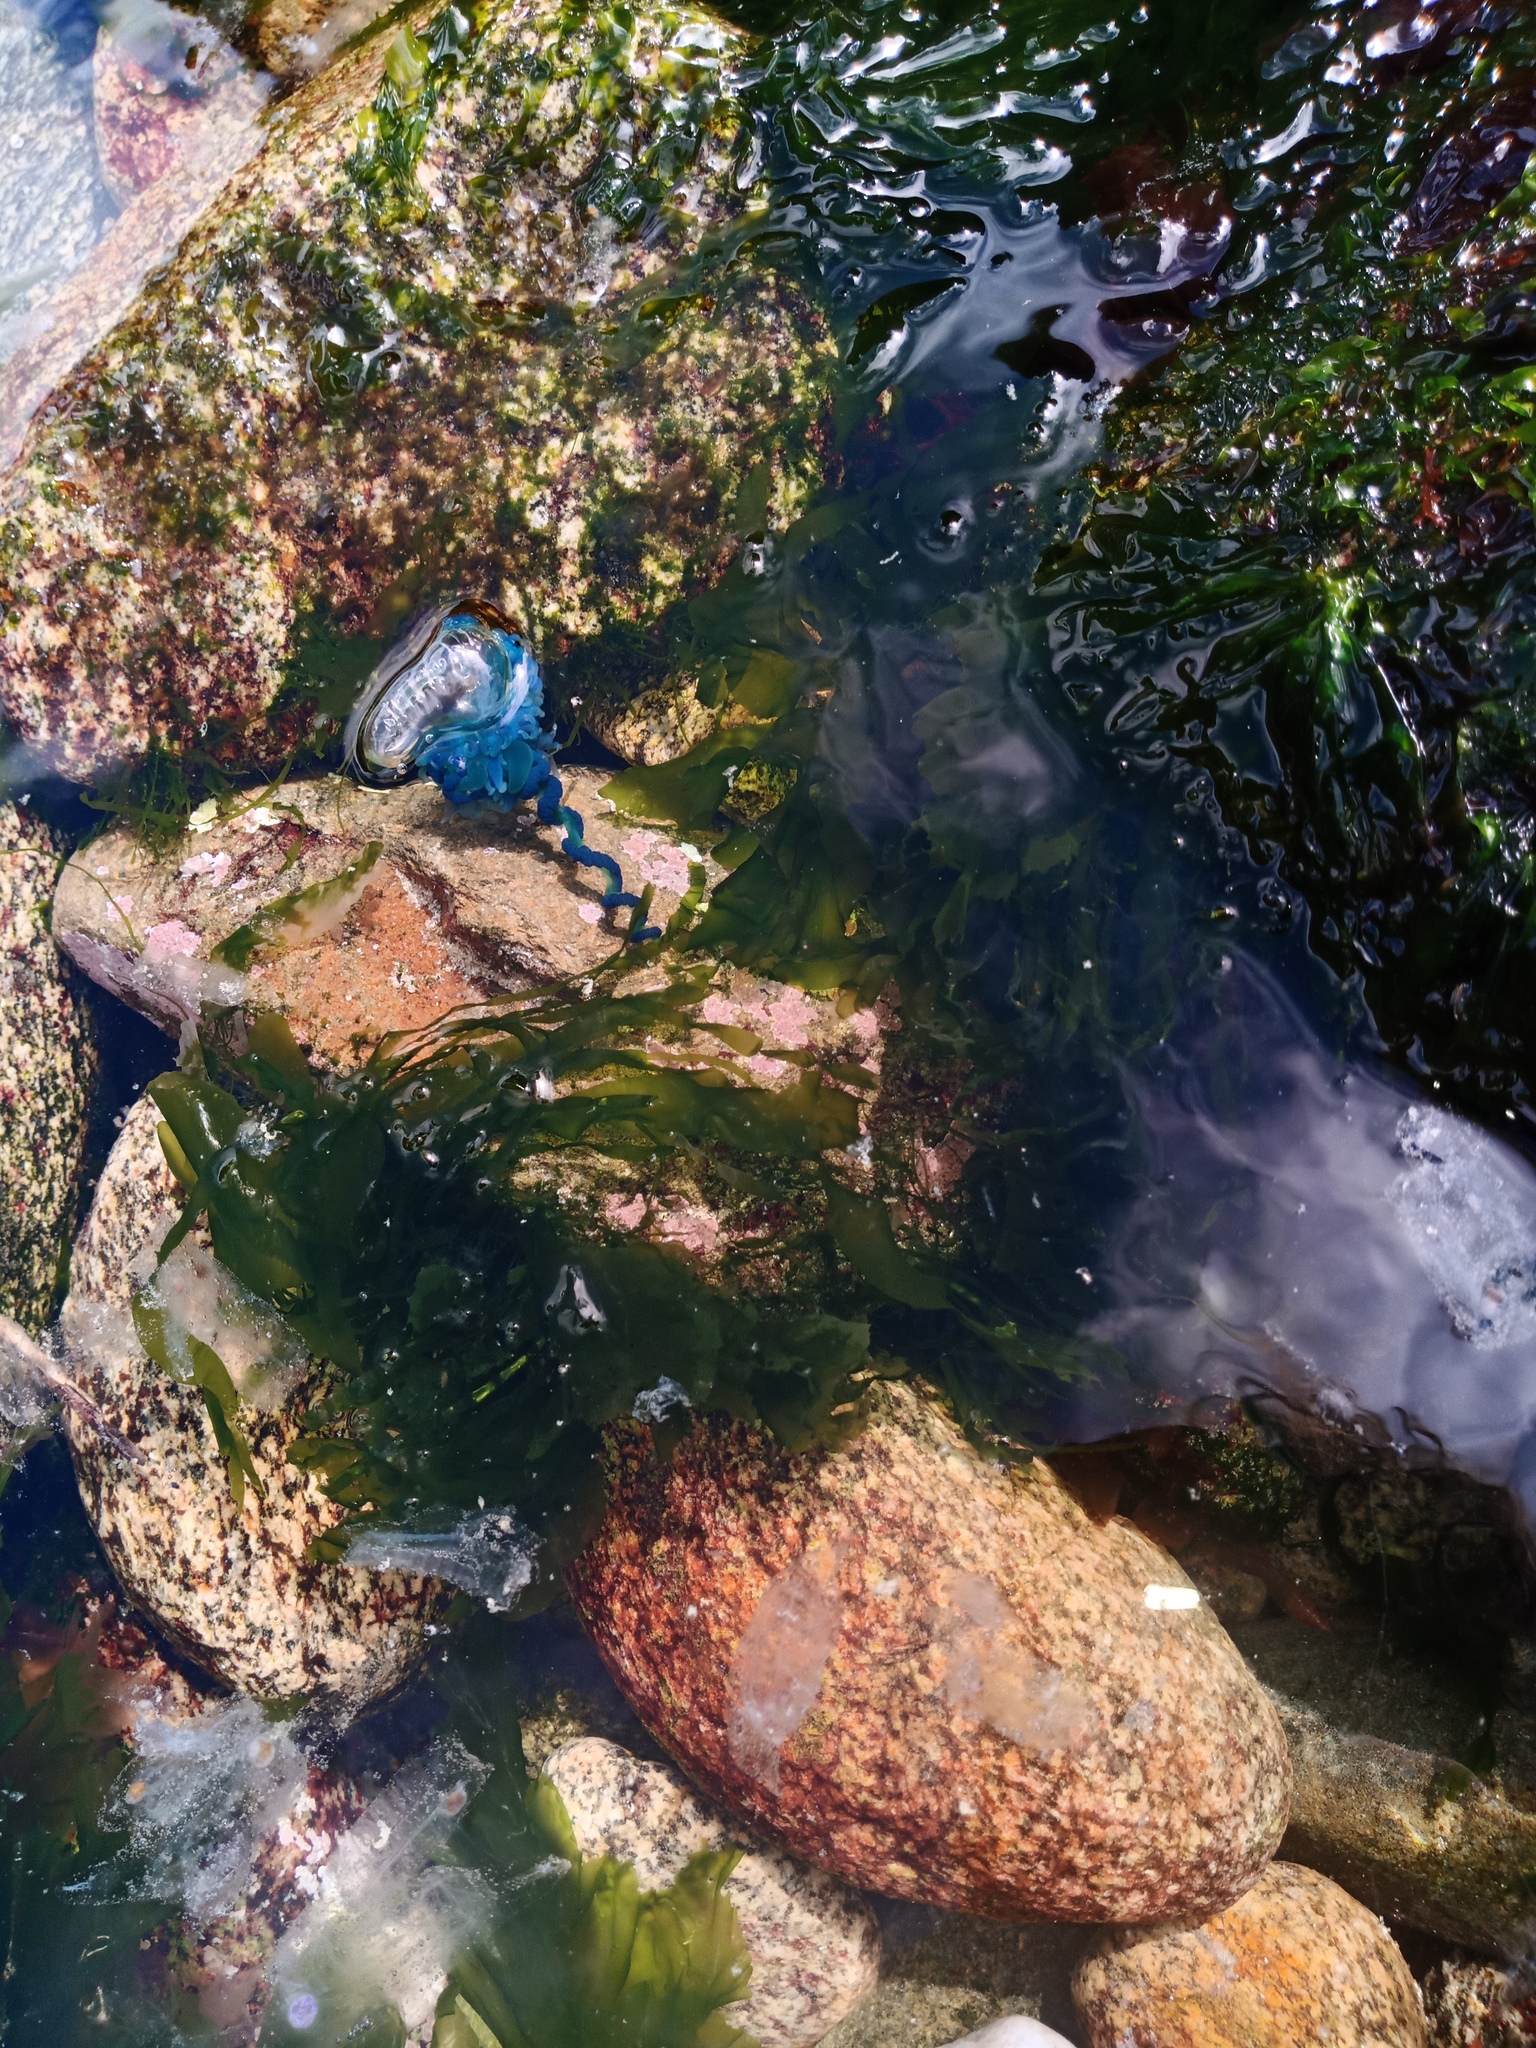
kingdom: Animalia
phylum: Cnidaria
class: Hydrozoa
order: Siphonophorae
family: Physaliidae
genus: Physalia
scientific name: Physalia physalis
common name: Portuguese man-of-war
